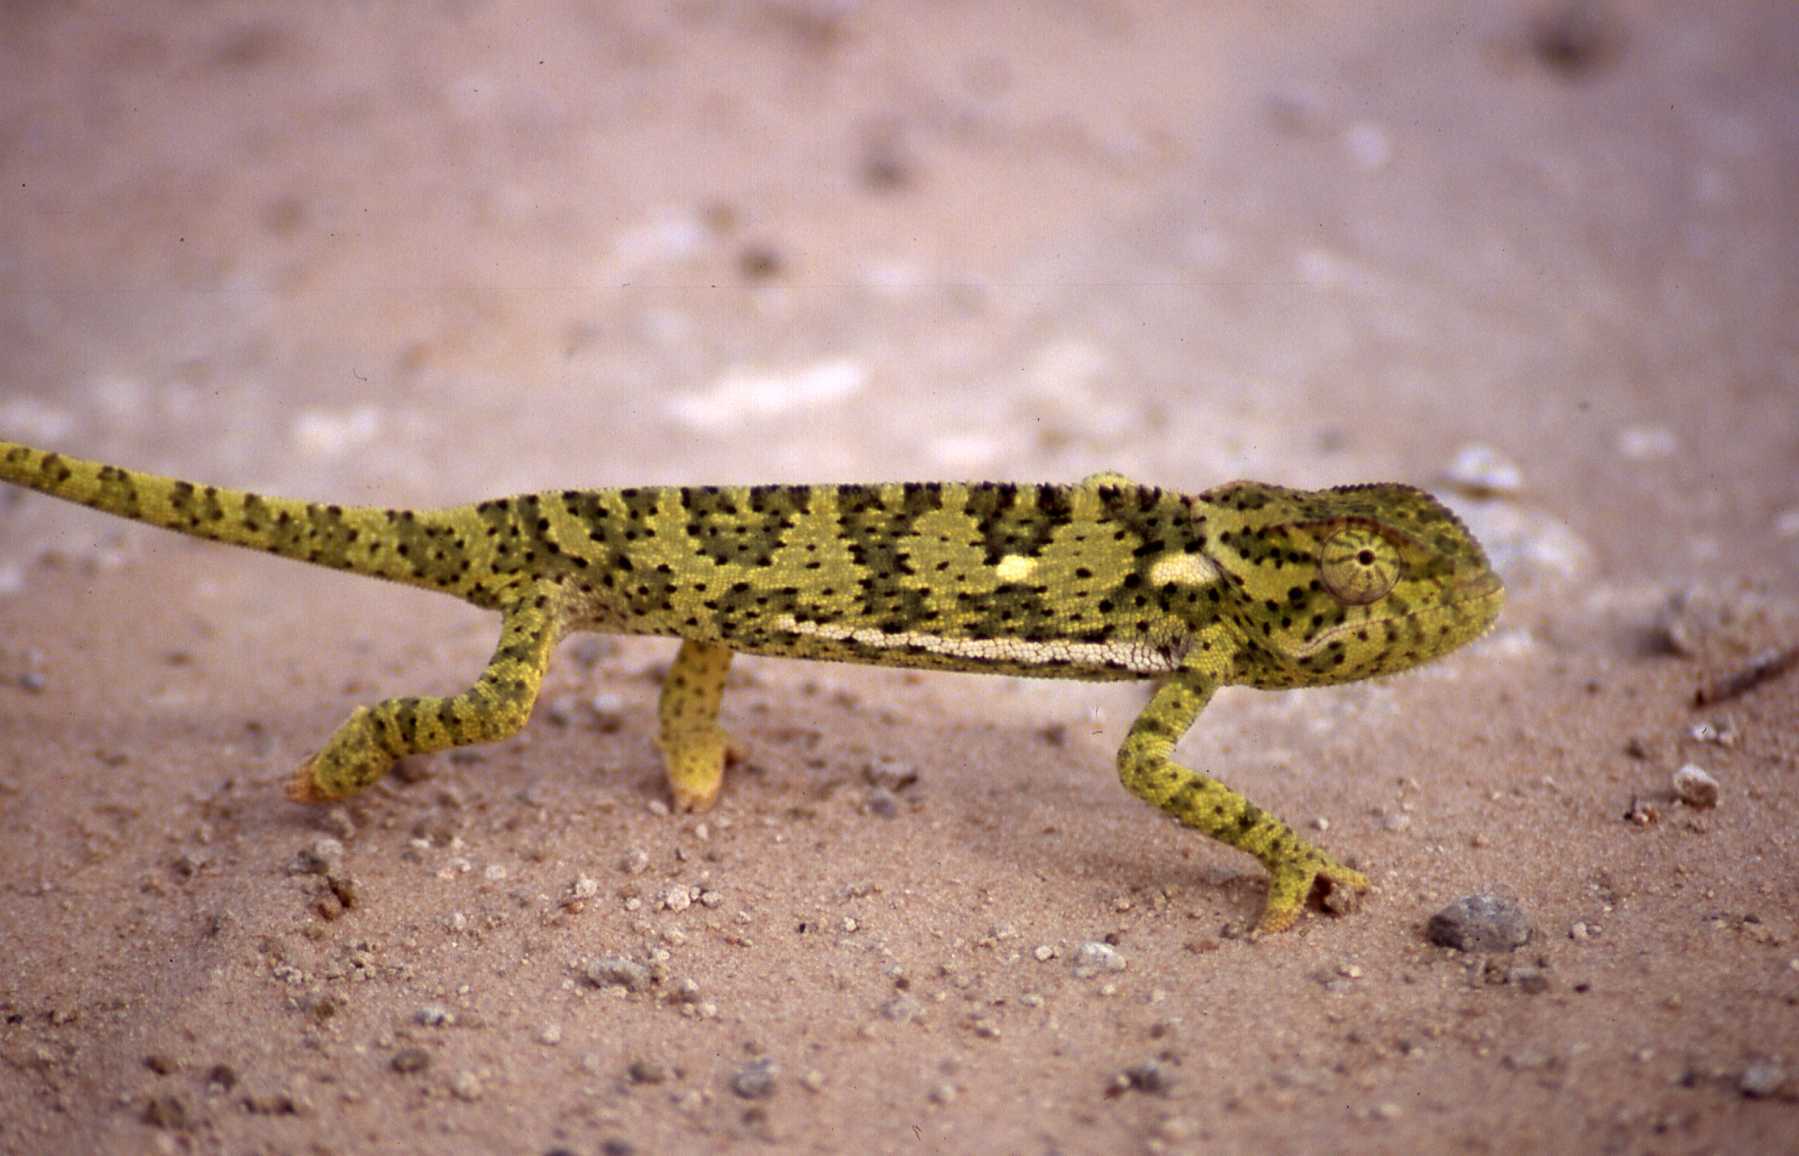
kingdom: Animalia
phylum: Chordata
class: Squamata
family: Chamaeleonidae
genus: Chamaeleo
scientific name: Chamaeleo dilepis
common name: Flapneck chameleon
